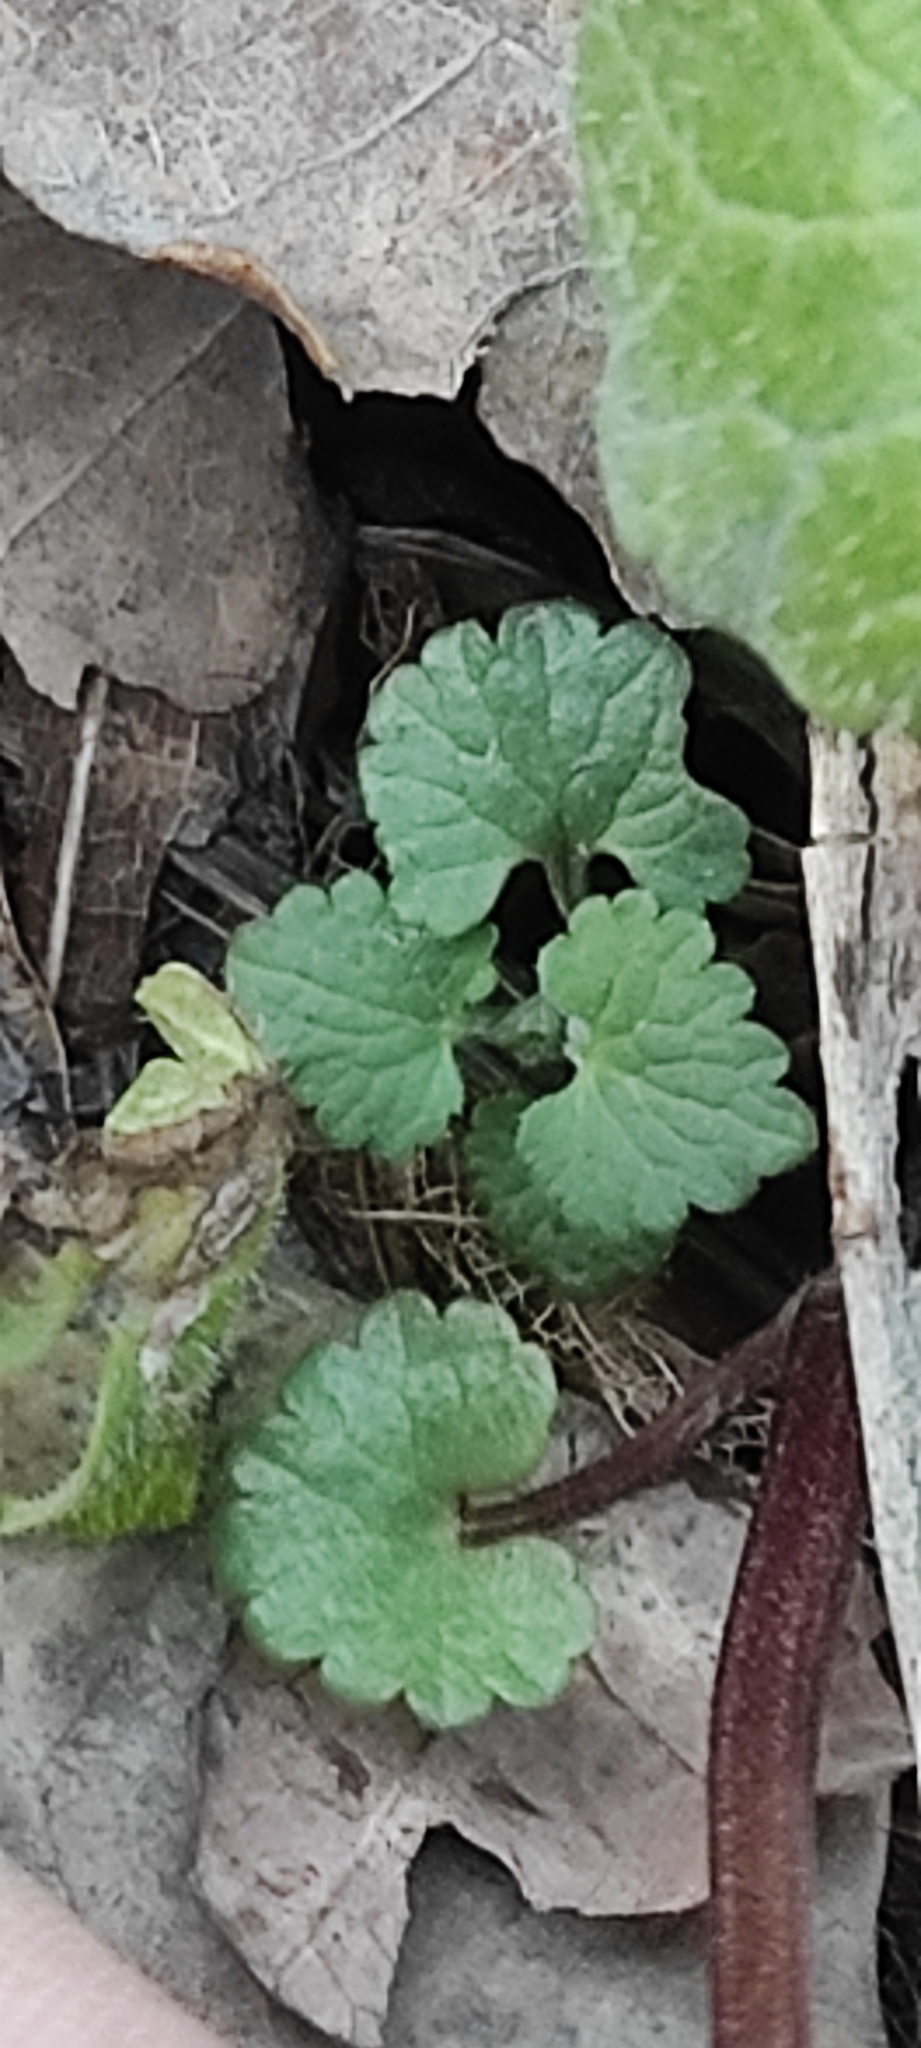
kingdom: Plantae
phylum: Tracheophyta
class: Magnoliopsida
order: Lamiales
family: Lamiaceae
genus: Glechoma
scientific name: Glechoma hederacea
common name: Ground ivy
